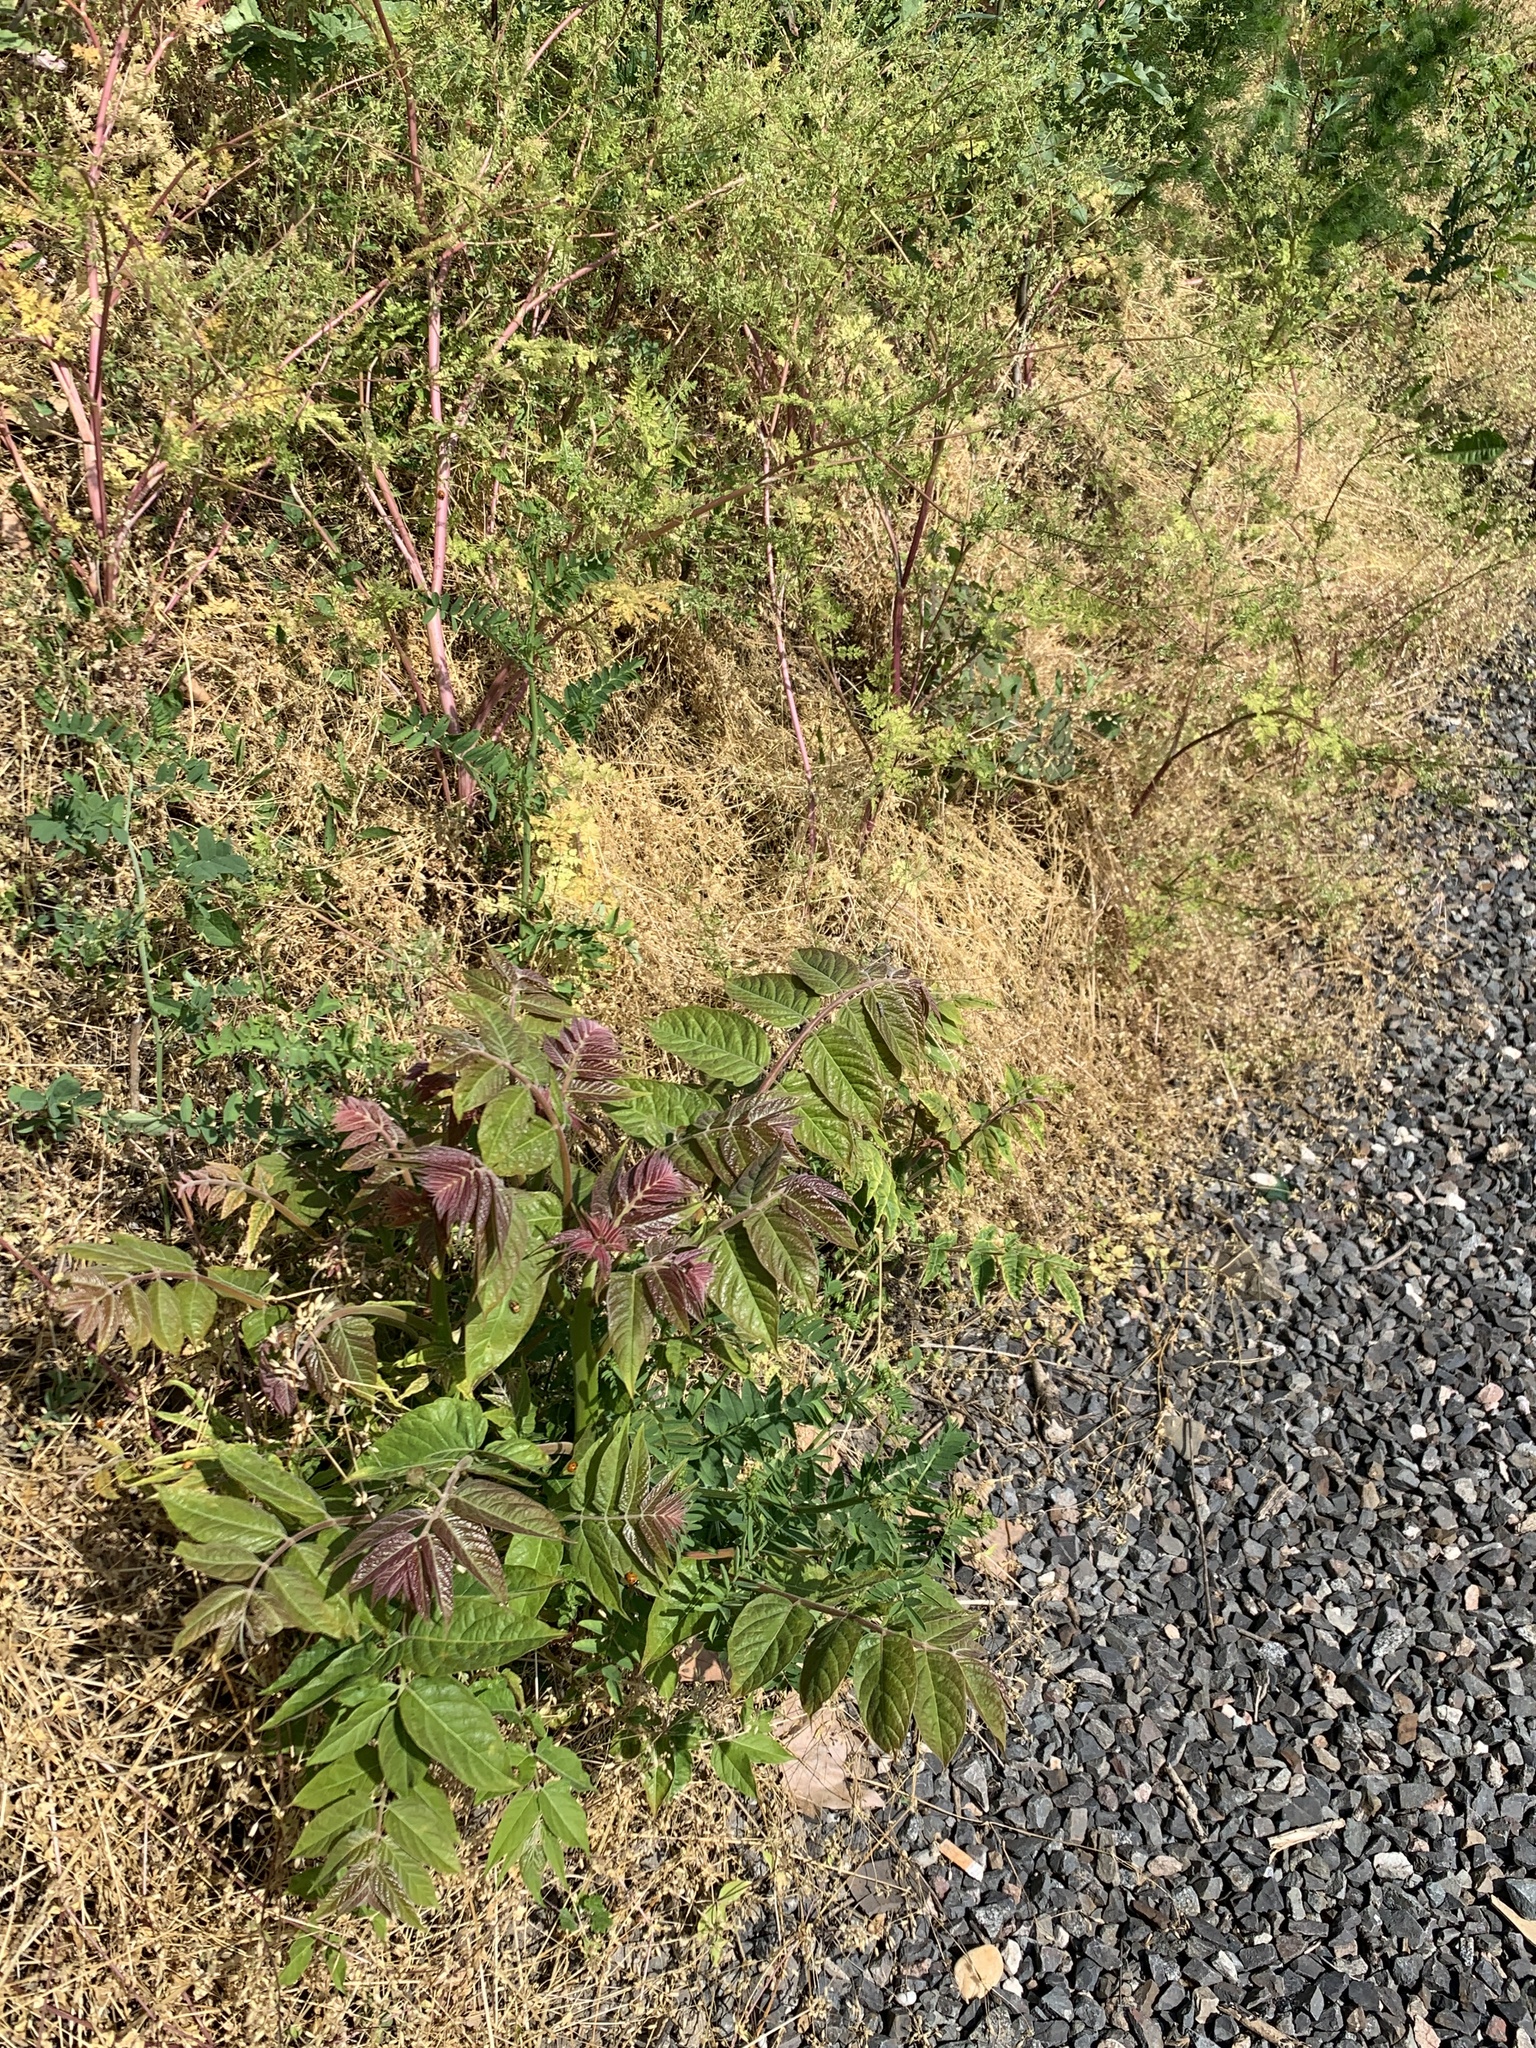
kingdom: Plantae
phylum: Tracheophyta
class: Magnoliopsida
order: Sapindales
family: Simaroubaceae
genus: Ailanthus
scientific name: Ailanthus altissima
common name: Tree-of-heaven
